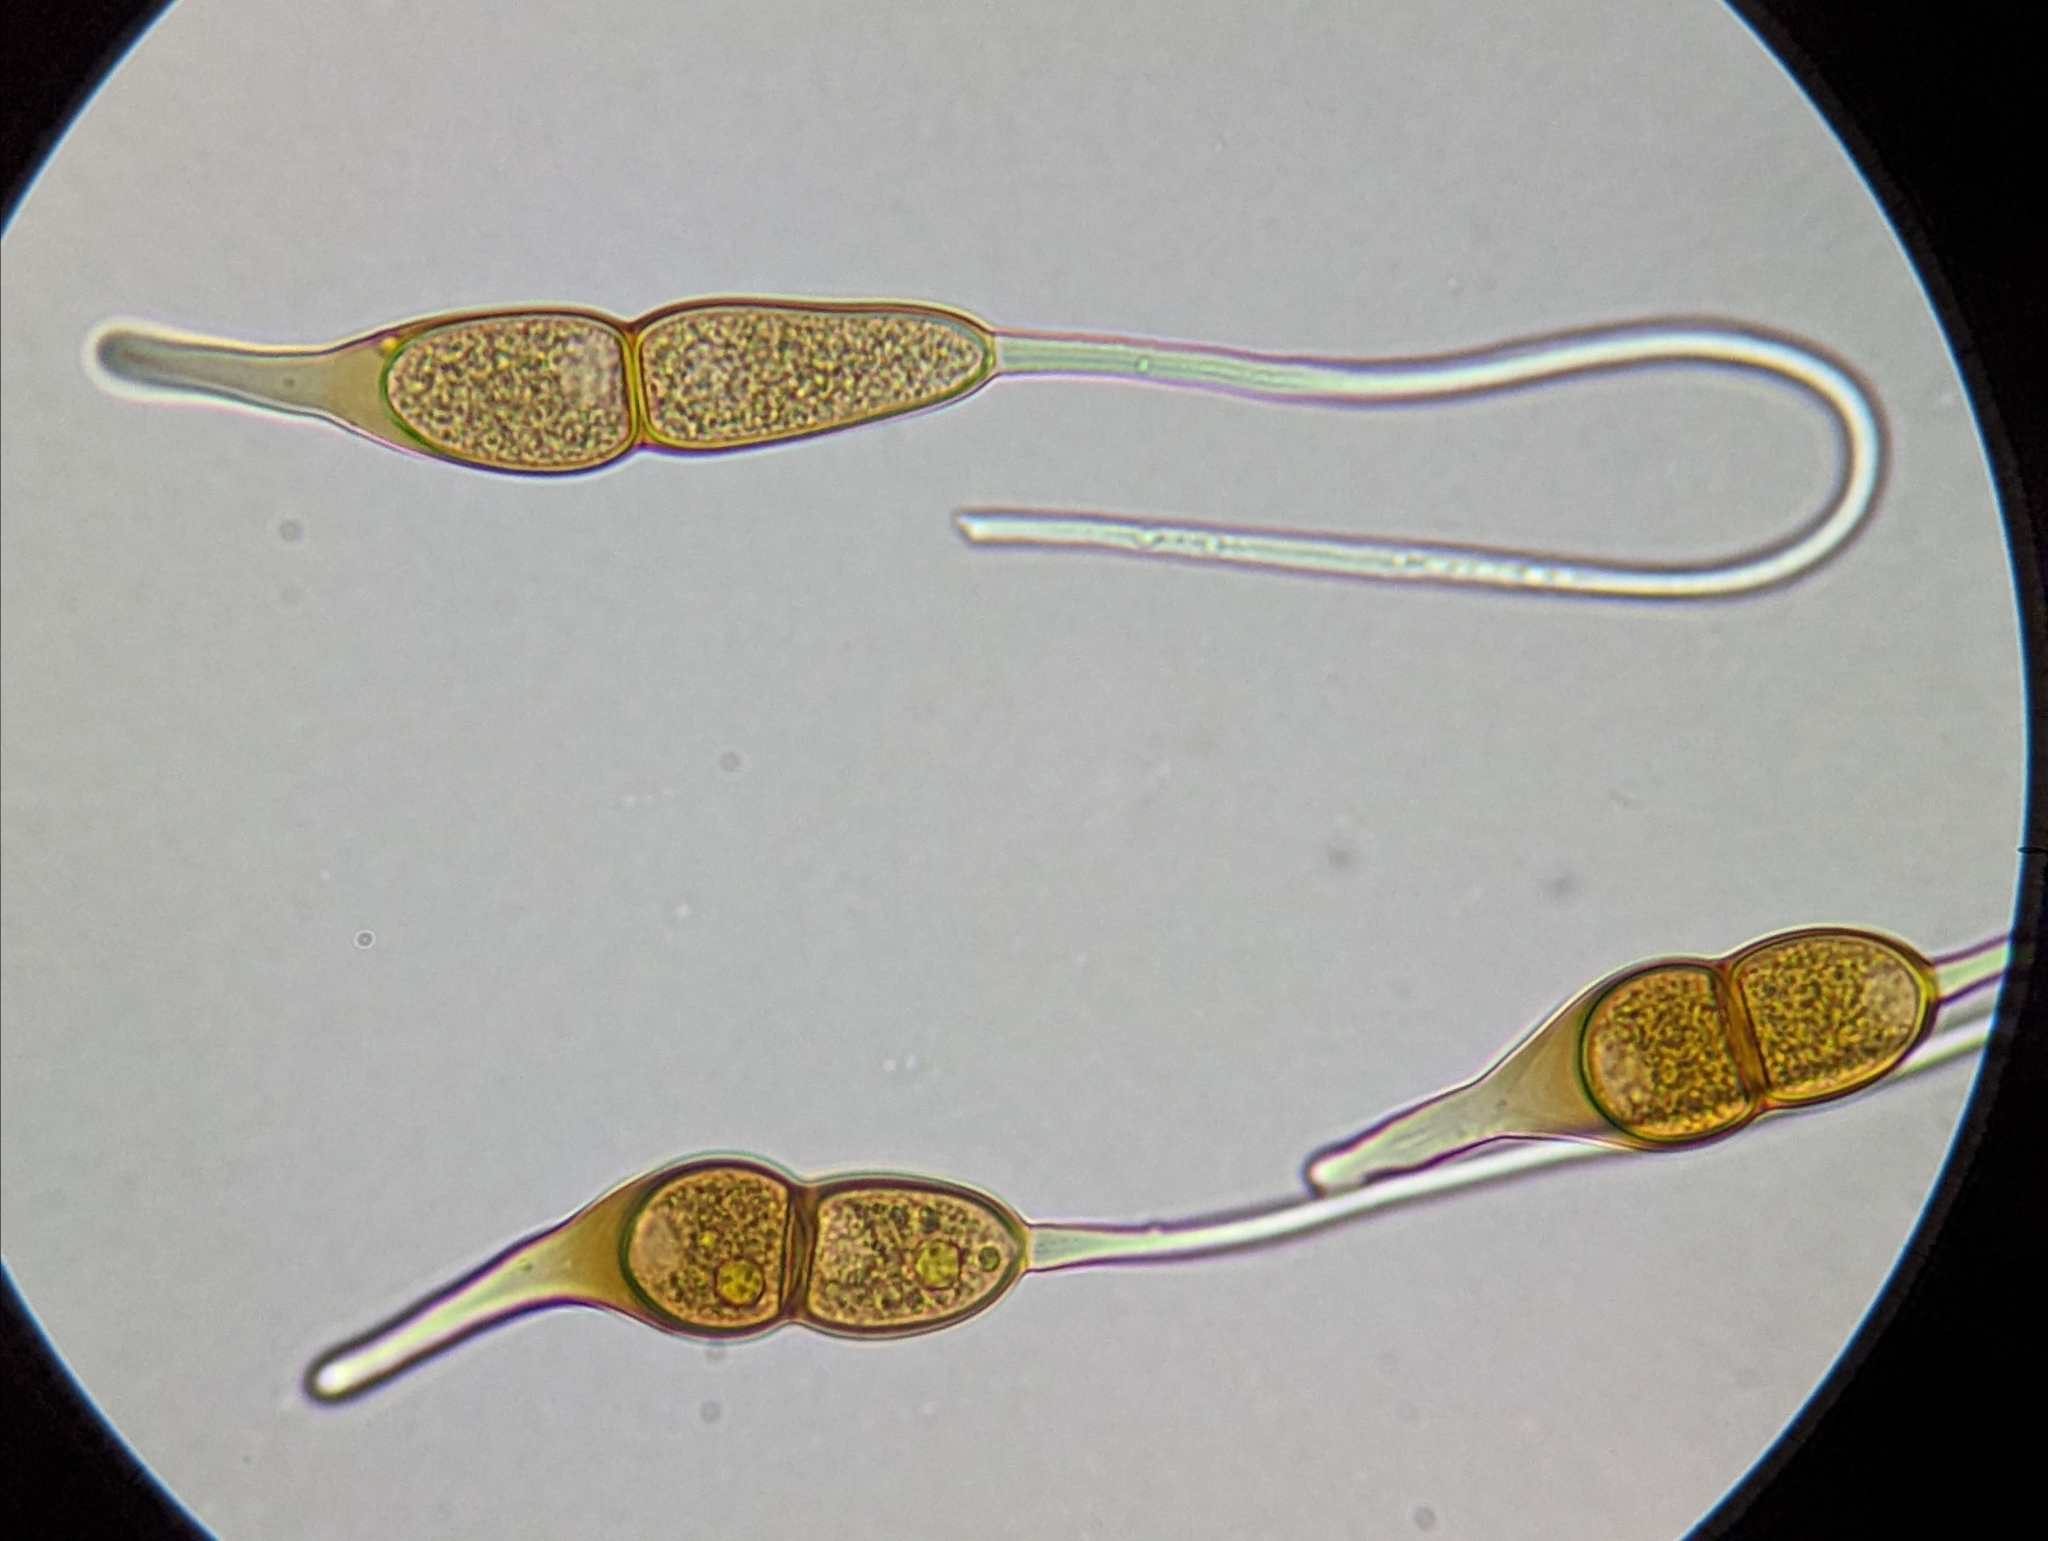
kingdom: Fungi
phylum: Basidiomycota
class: Pucciniomycetes
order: Pucciniales
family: Pucciniaceae
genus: Puccinia
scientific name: Puccinia phyllostachydis
